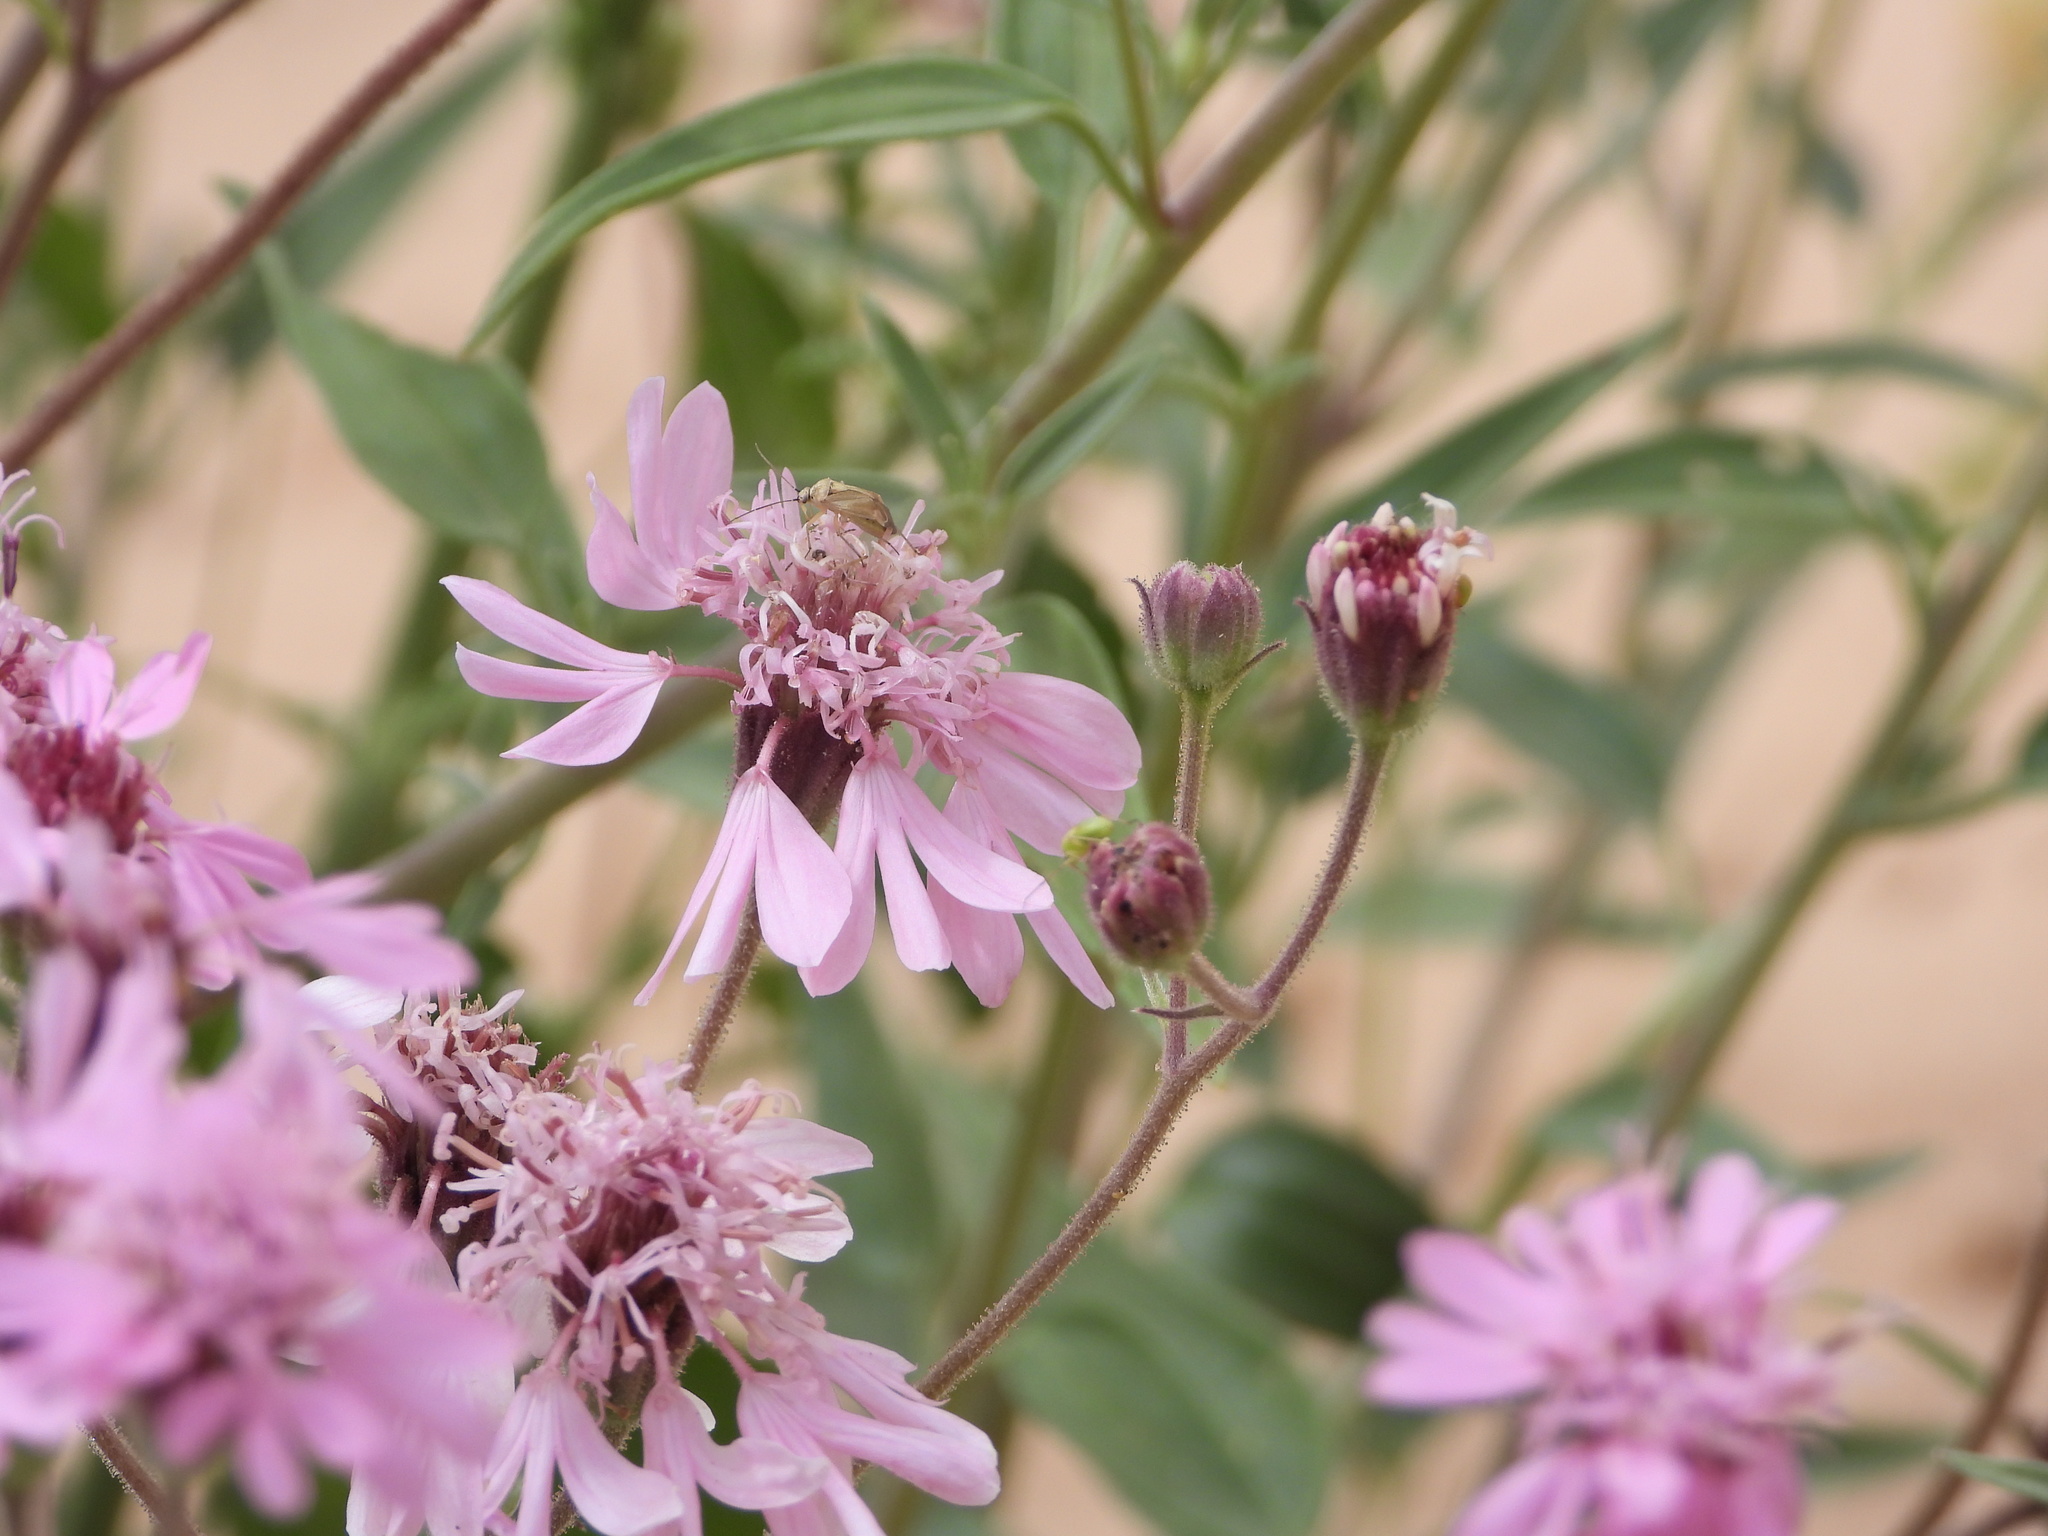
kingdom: Plantae
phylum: Tracheophyta
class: Magnoliopsida
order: Asterales
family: Asteraceae
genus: Palafoxia
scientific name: Palafoxia sphacelata
